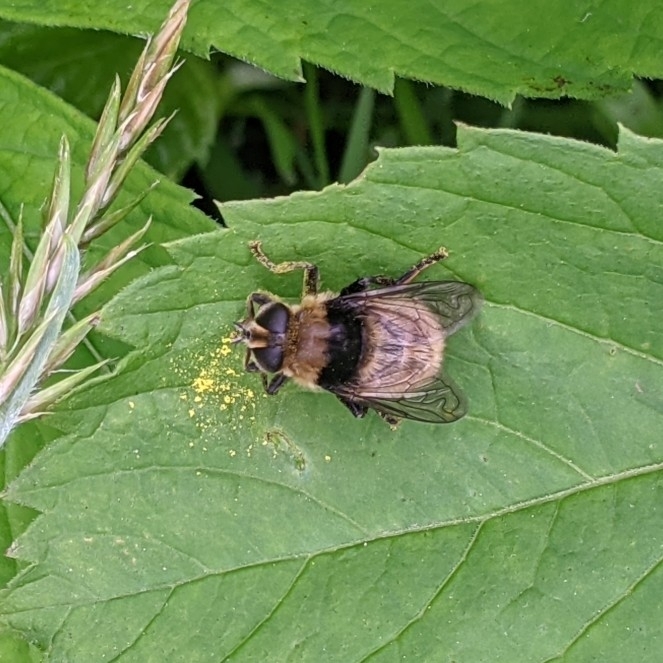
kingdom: Animalia
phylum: Arthropoda
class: Insecta
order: Diptera
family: Syrphidae
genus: Merodon
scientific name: Merodon equestris
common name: Greater bulb-fly
